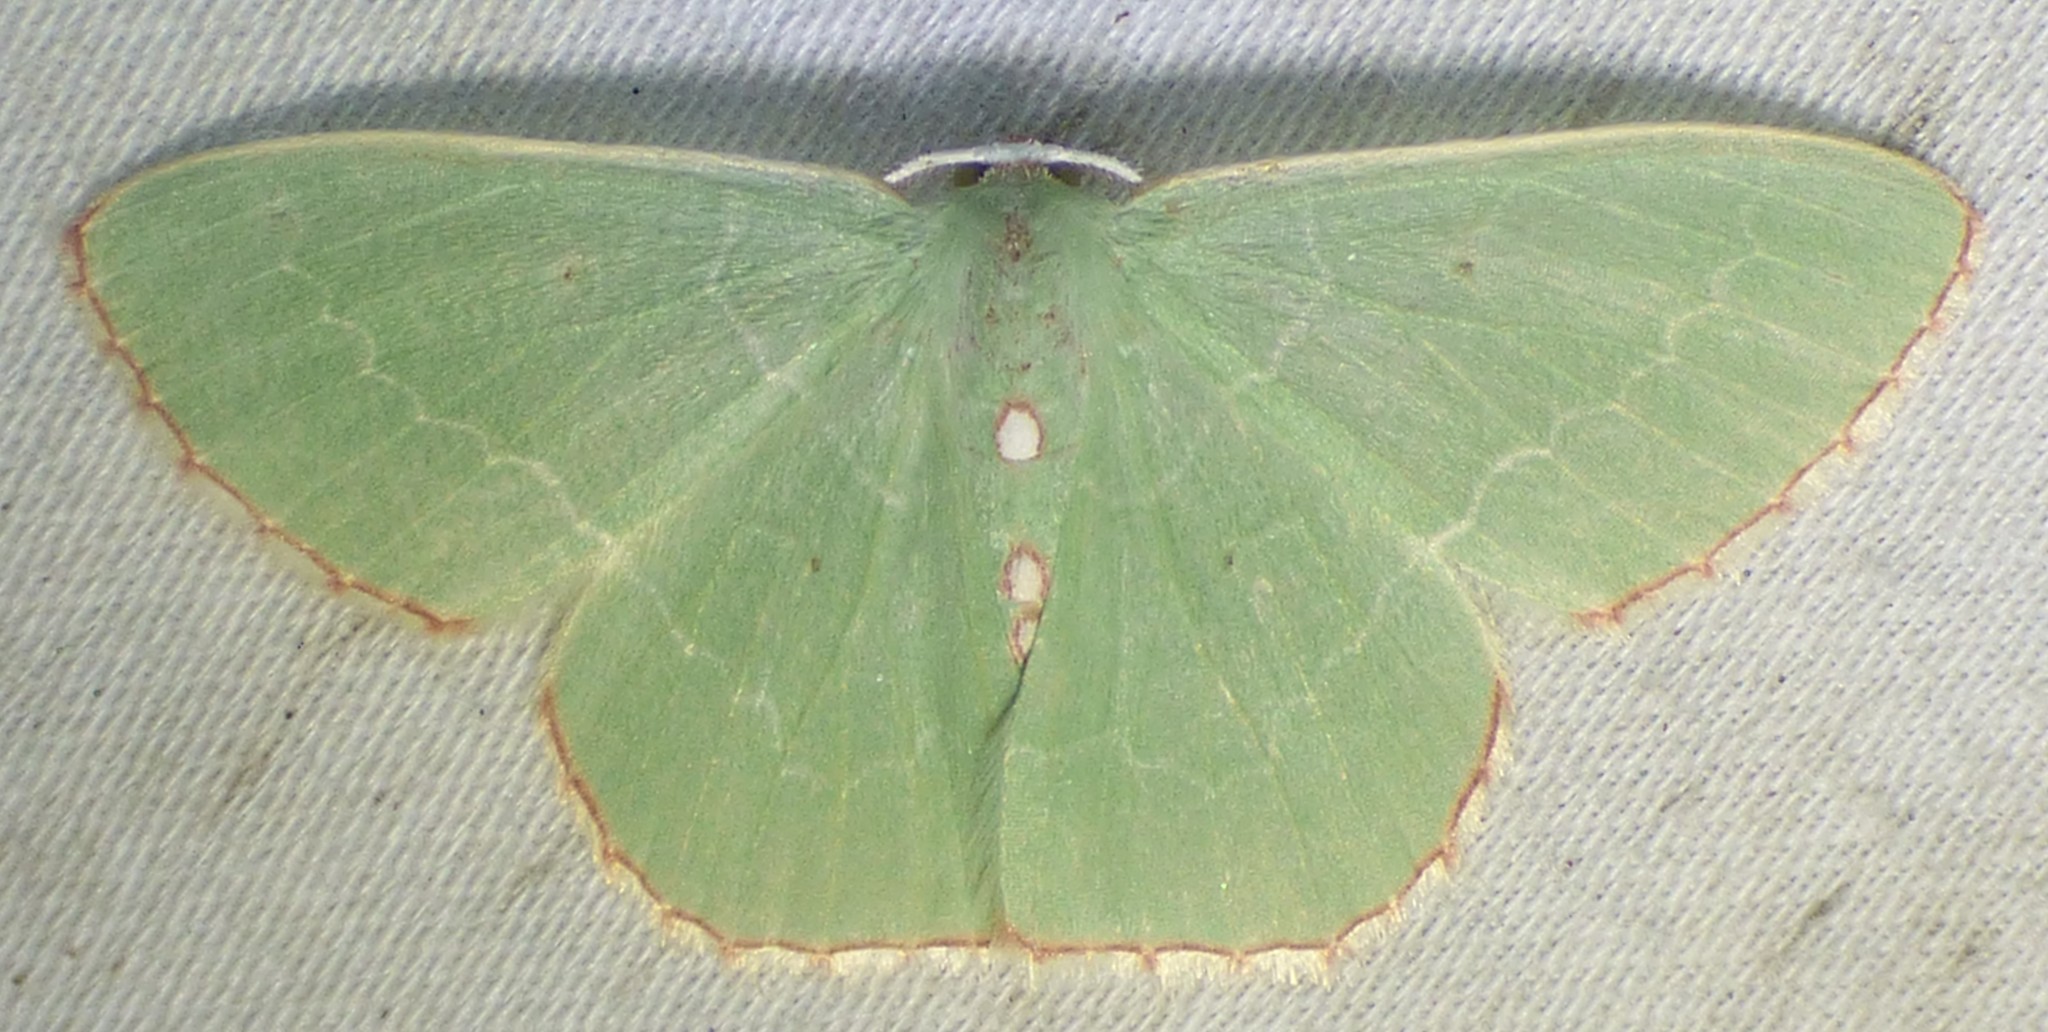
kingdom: Animalia
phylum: Arthropoda
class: Insecta
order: Lepidoptera
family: Geometridae
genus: Nemoria
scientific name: Nemoria lixaria
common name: Red-bordered emerald
